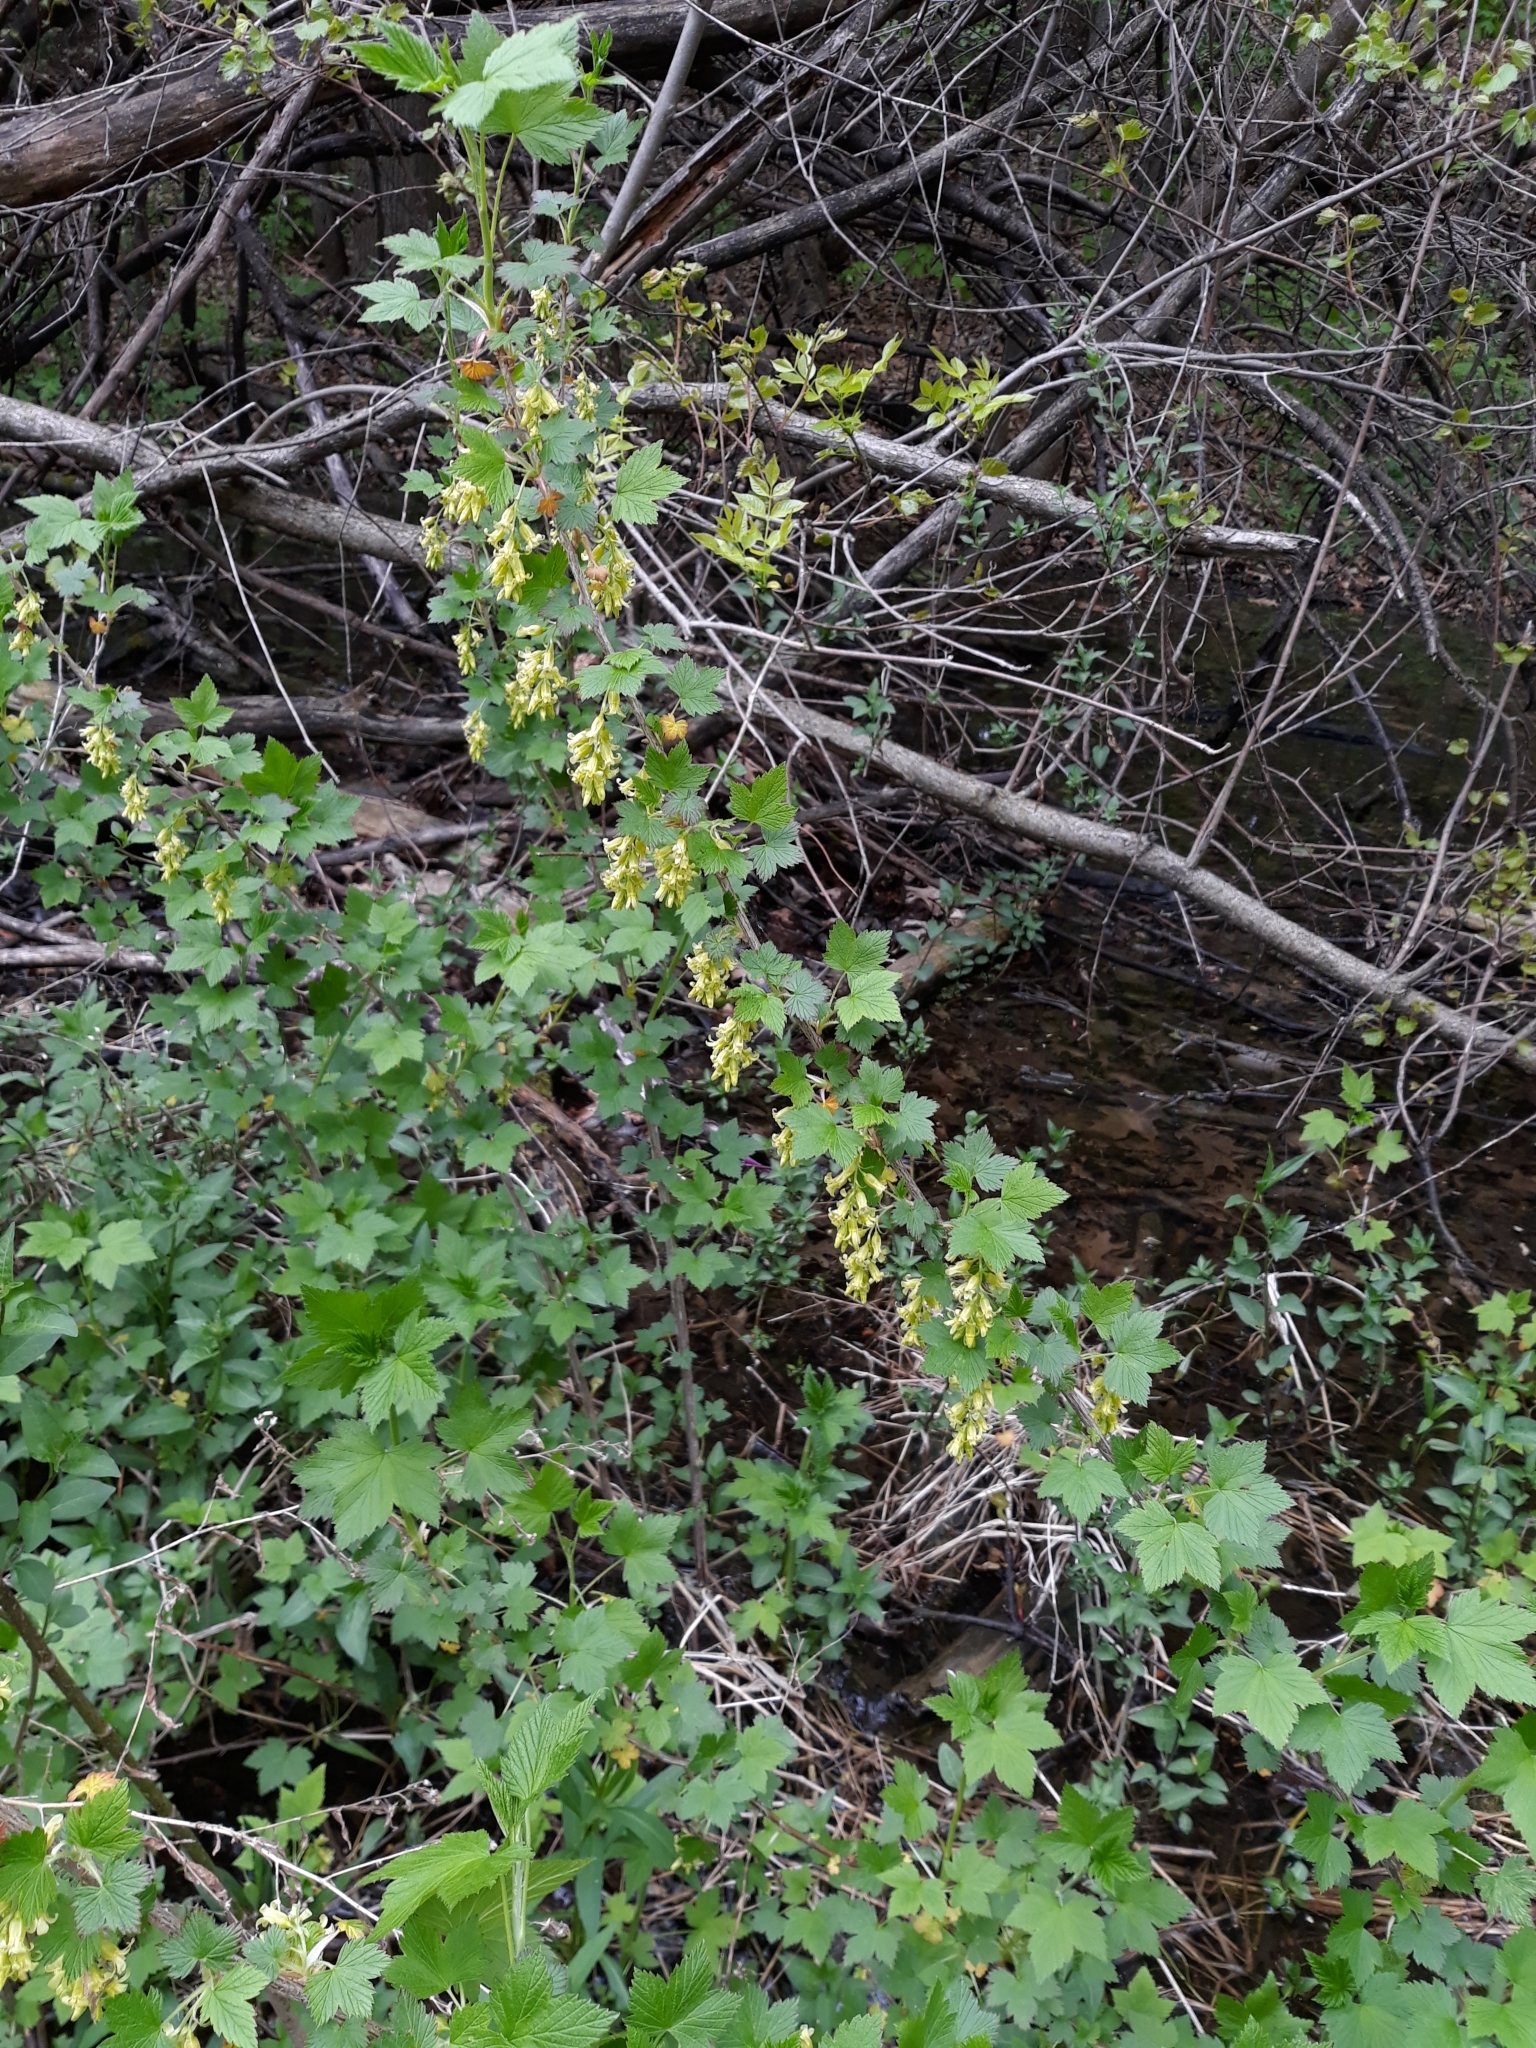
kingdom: Plantae
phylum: Tracheophyta
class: Magnoliopsida
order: Saxifragales
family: Grossulariaceae
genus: Ribes
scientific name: Ribes americanum
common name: American black currant
